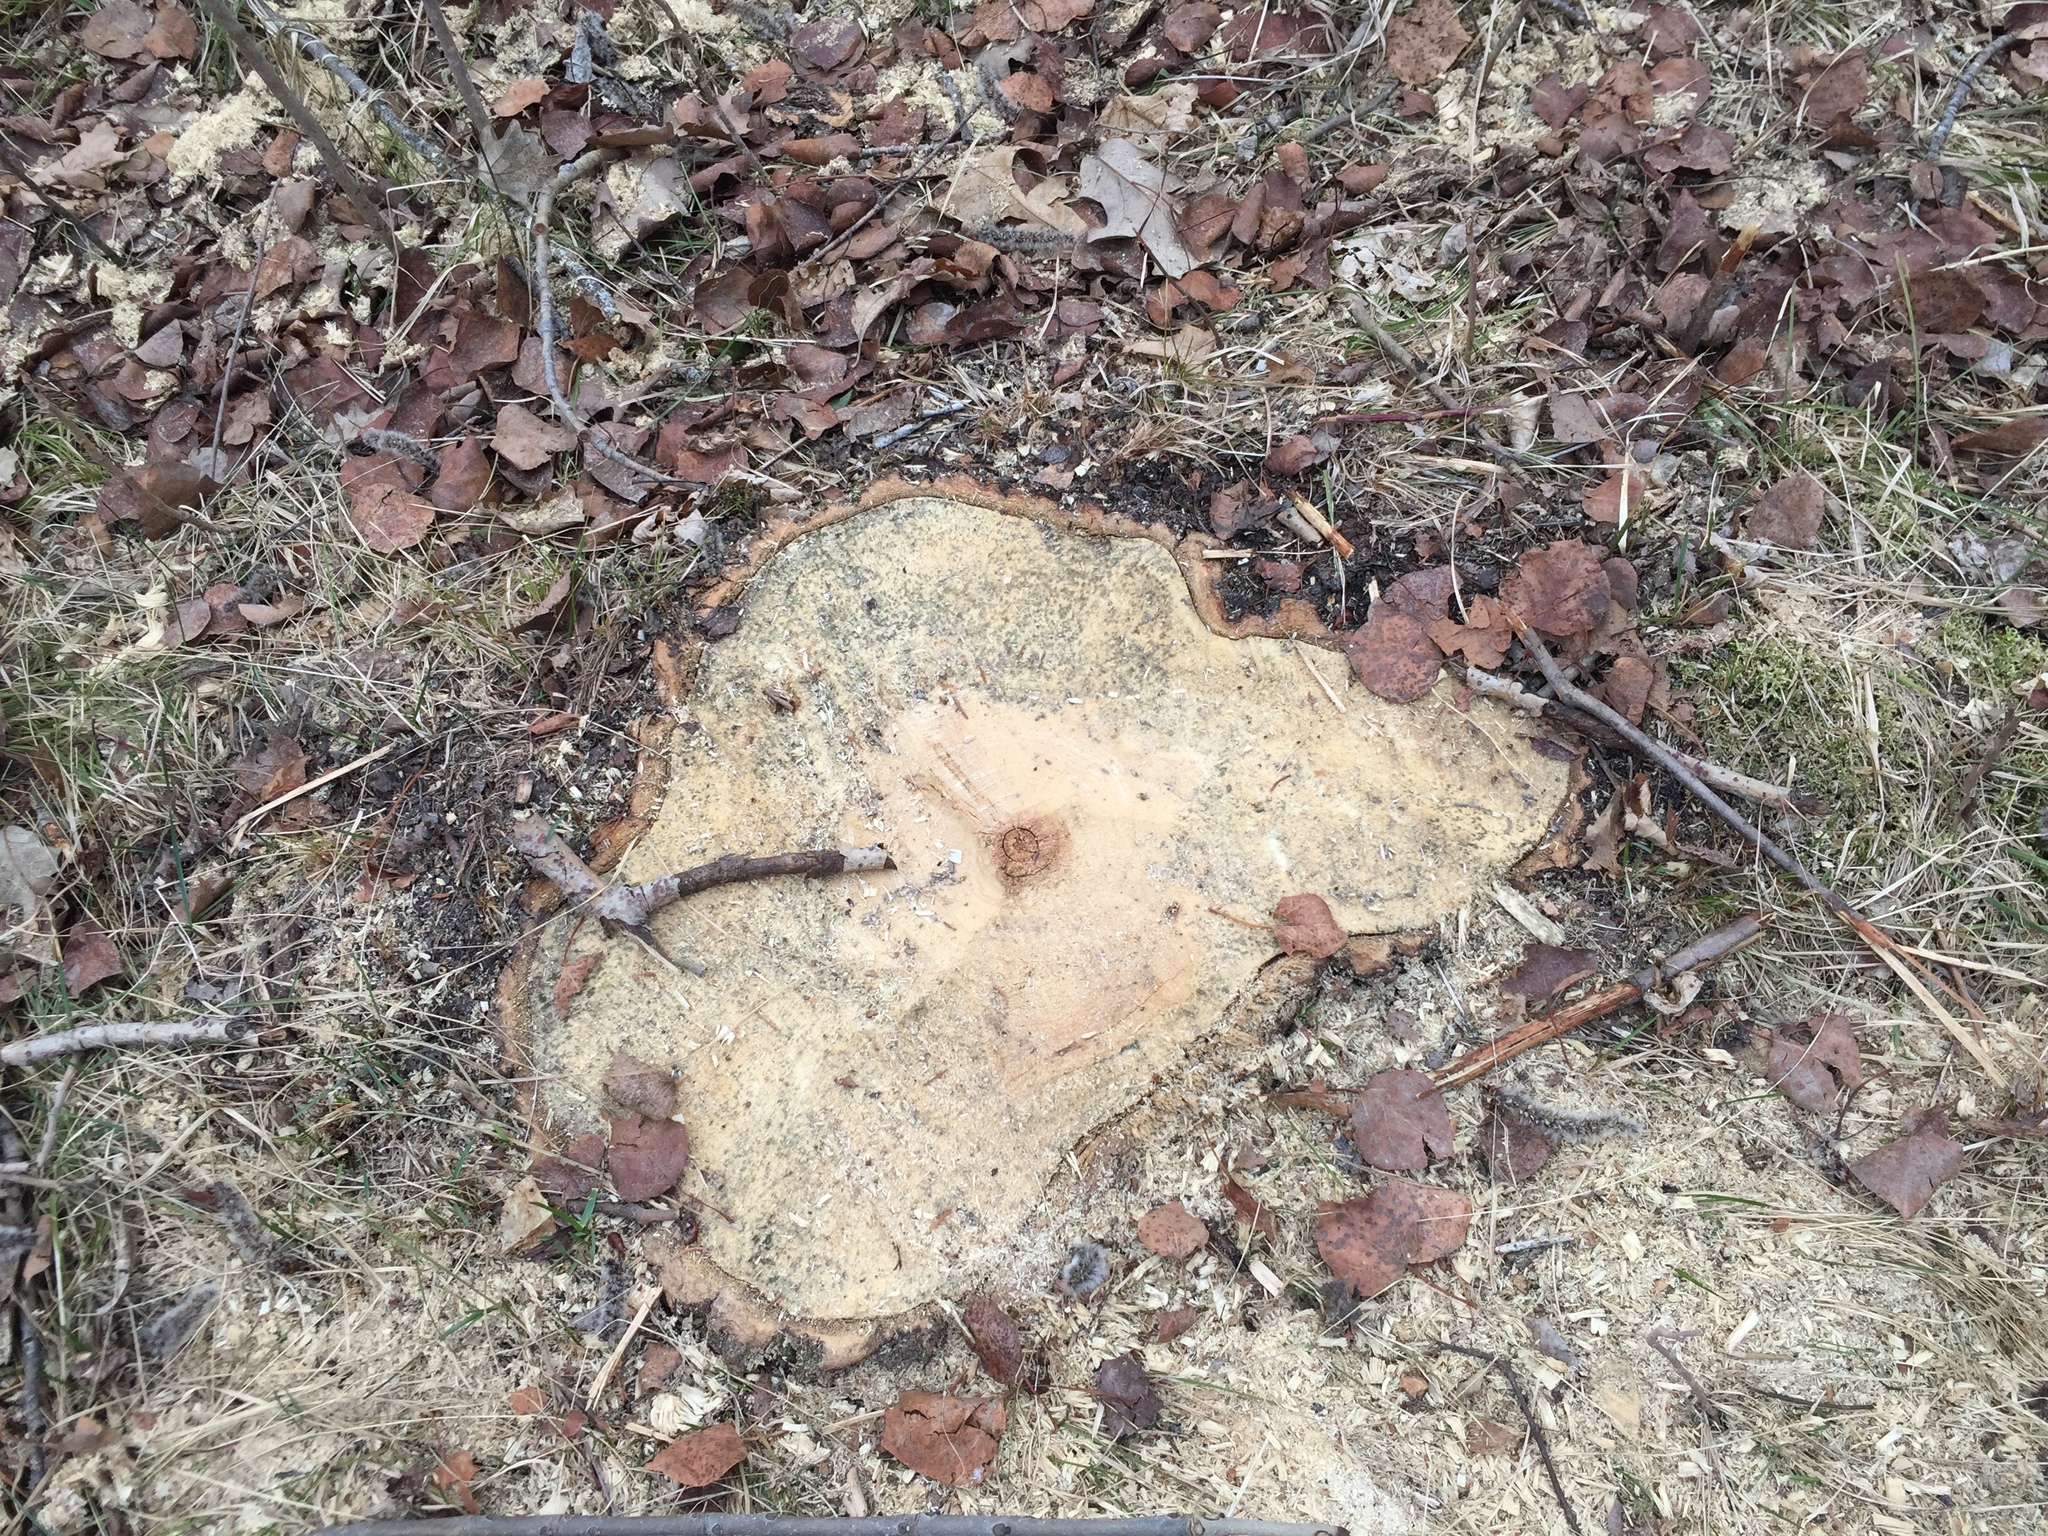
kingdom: Plantae
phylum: Tracheophyta
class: Magnoliopsida
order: Malpighiales
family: Salicaceae
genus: Populus
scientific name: Populus tremuloides
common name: Quaking aspen
